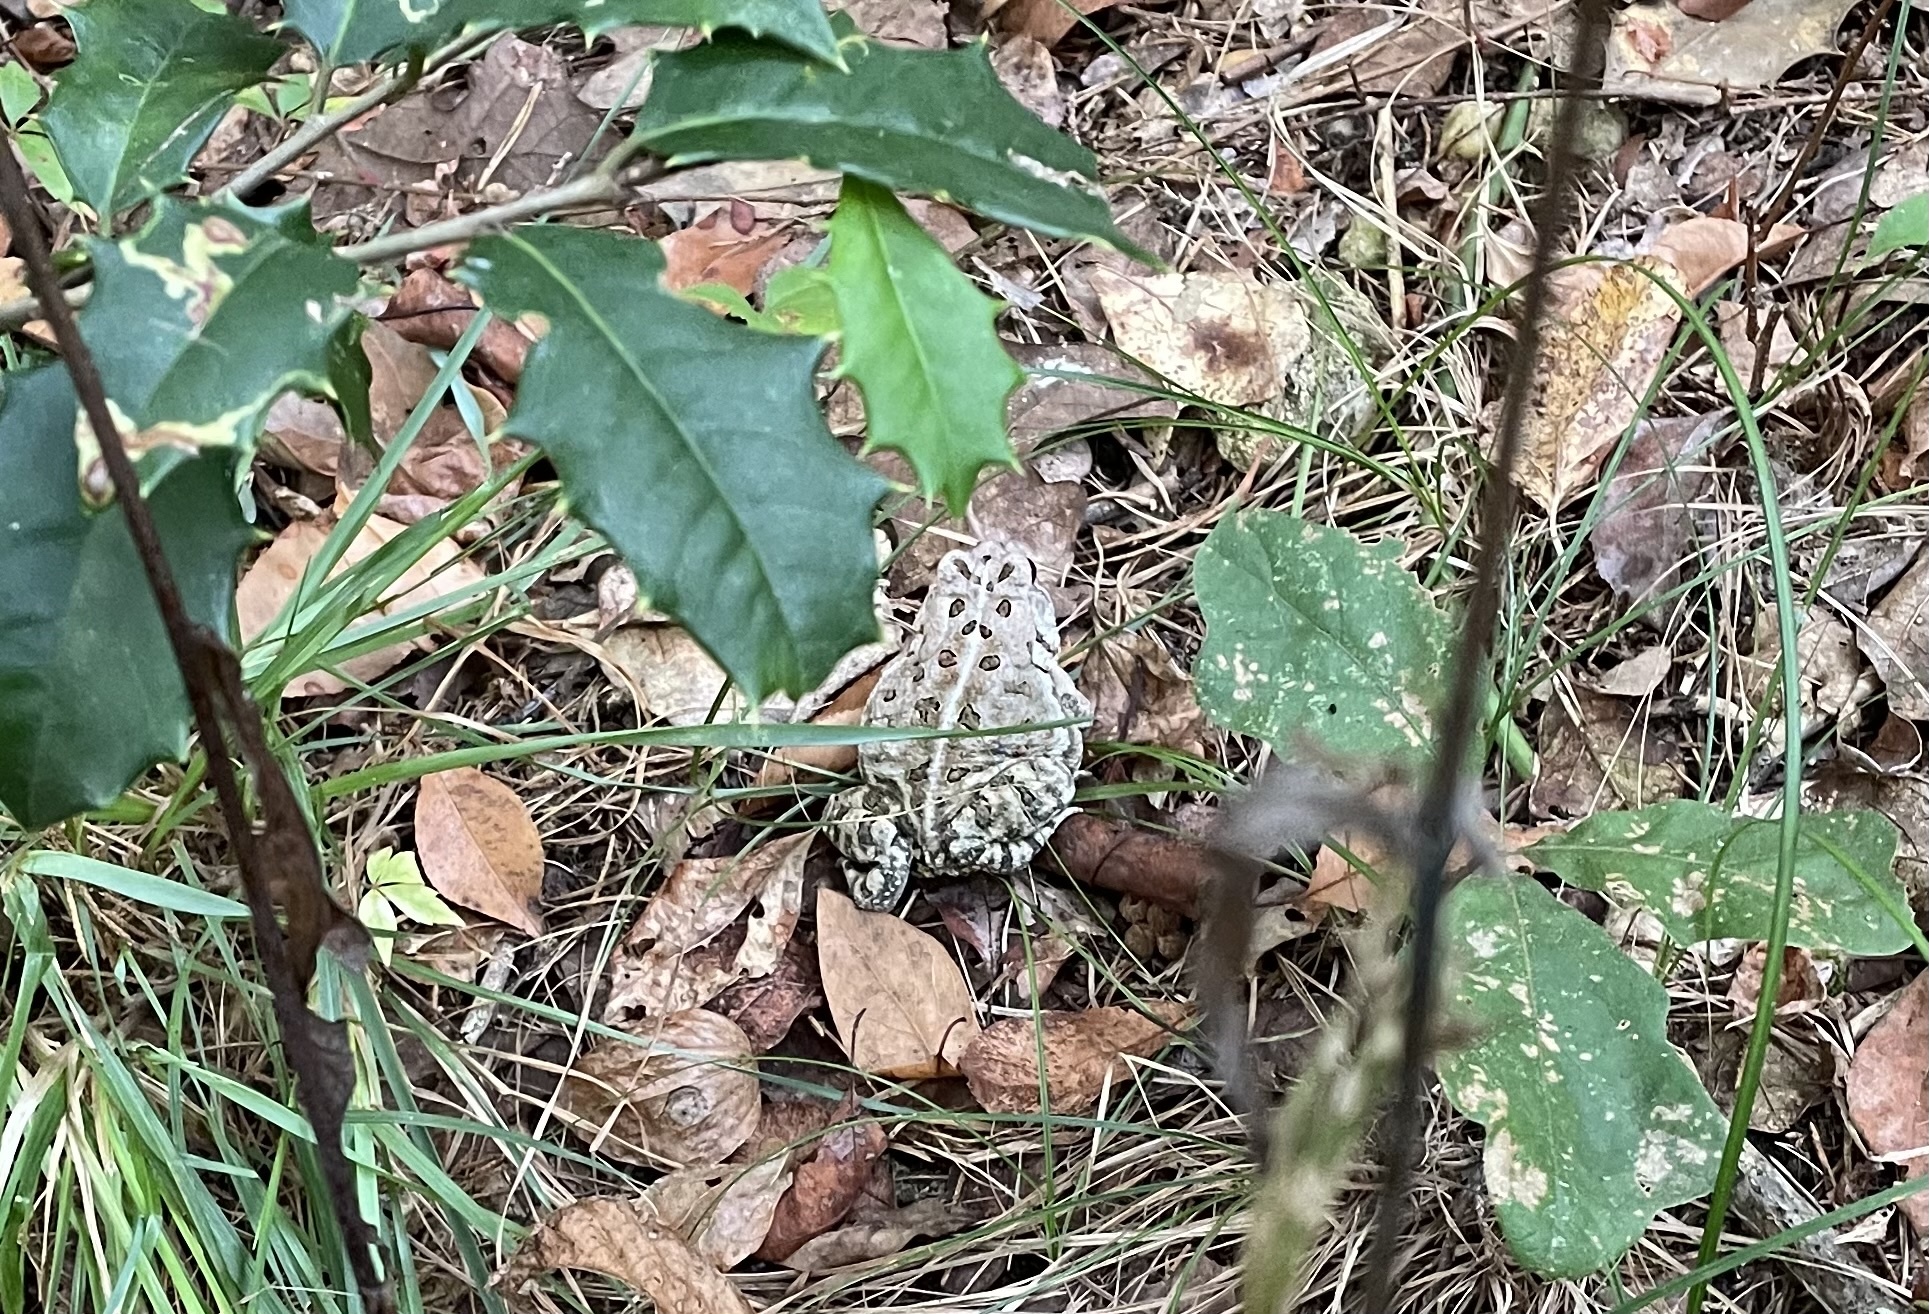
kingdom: Animalia
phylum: Chordata
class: Amphibia
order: Anura
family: Bufonidae
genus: Anaxyrus
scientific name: Anaxyrus fowleri
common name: Fowler's toad
